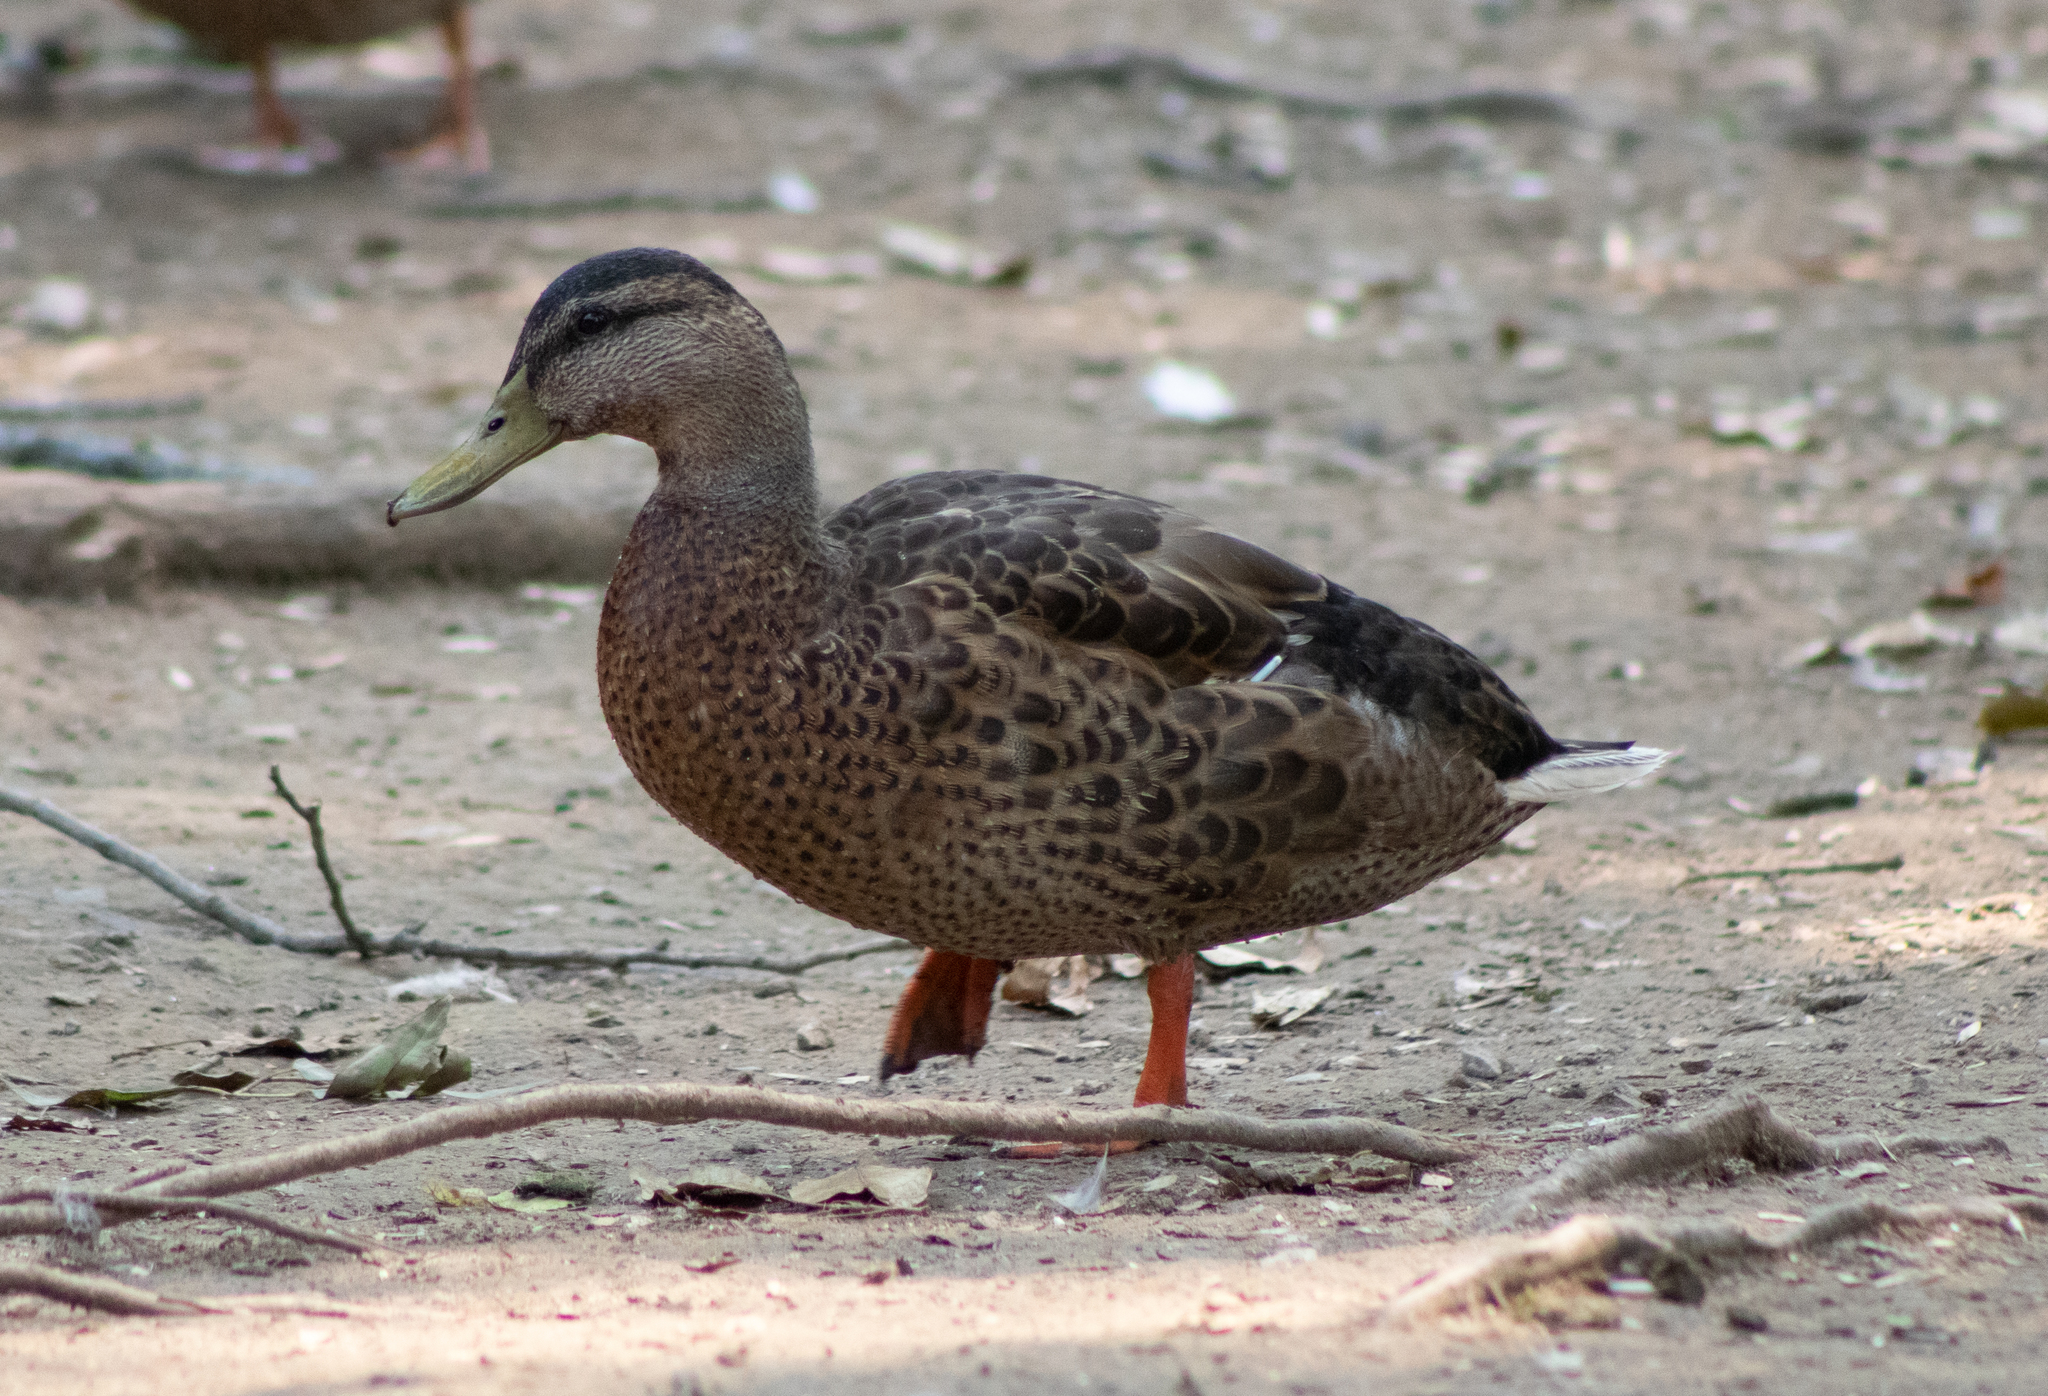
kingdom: Animalia
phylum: Chordata
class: Aves
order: Anseriformes
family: Anatidae
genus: Anas
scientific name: Anas platyrhynchos
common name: Mallard
